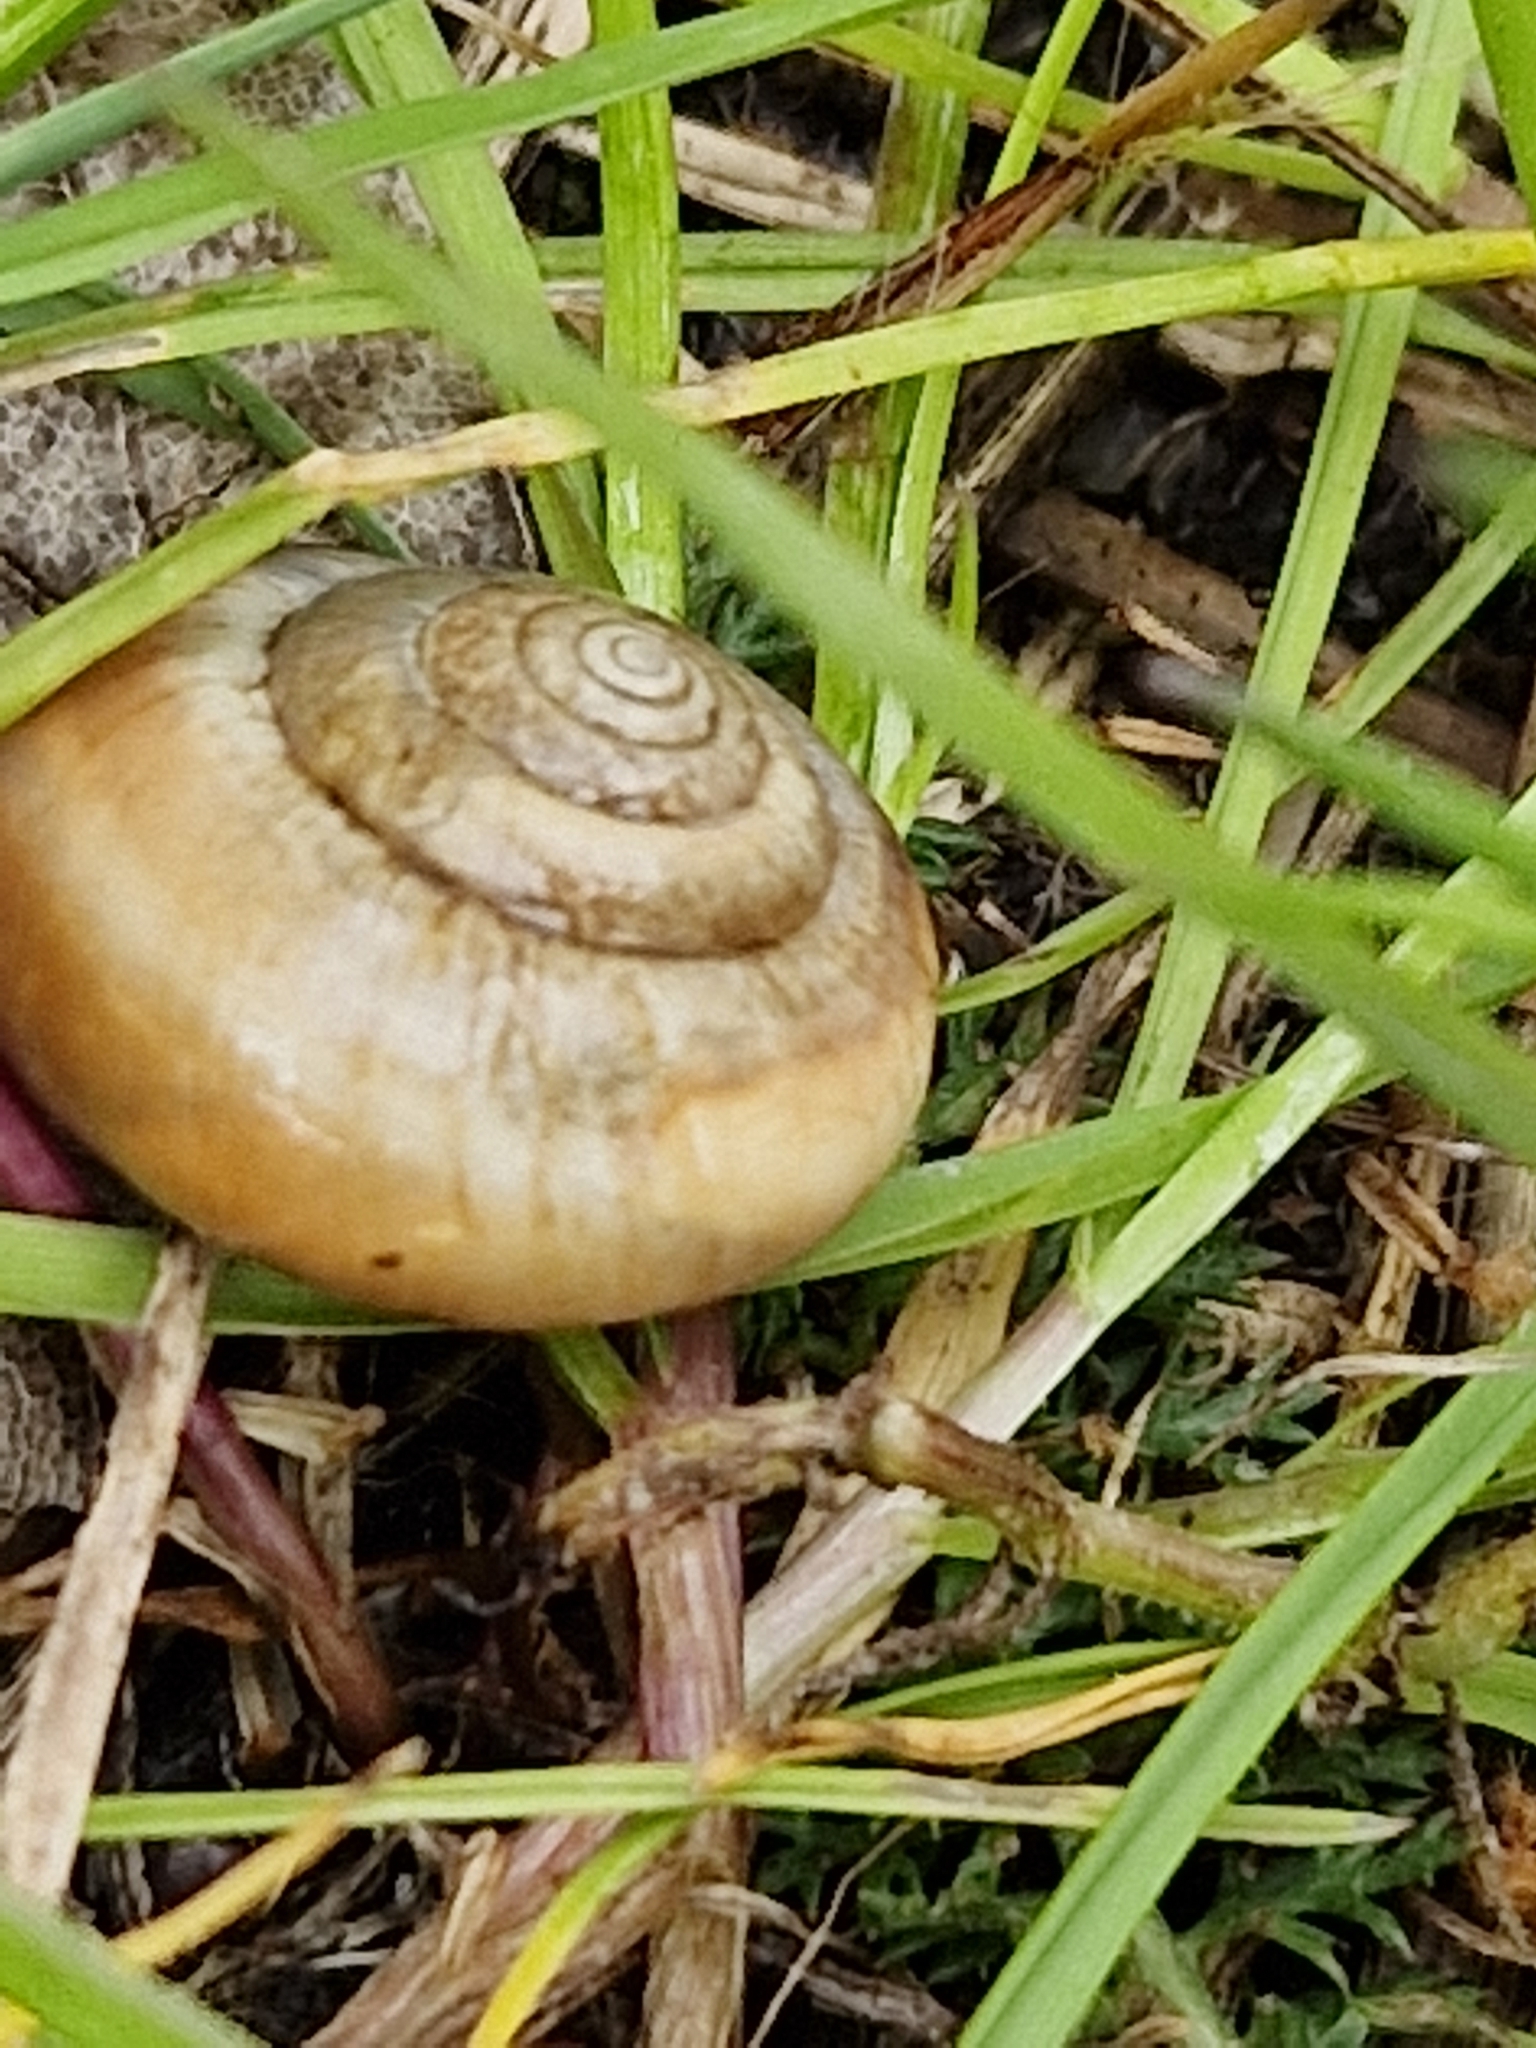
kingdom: Animalia
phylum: Mollusca
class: Gastropoda
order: Stylommatophora
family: Hygromiidae
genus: Monacha
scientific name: Monacha cantiana
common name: Kentish snail
